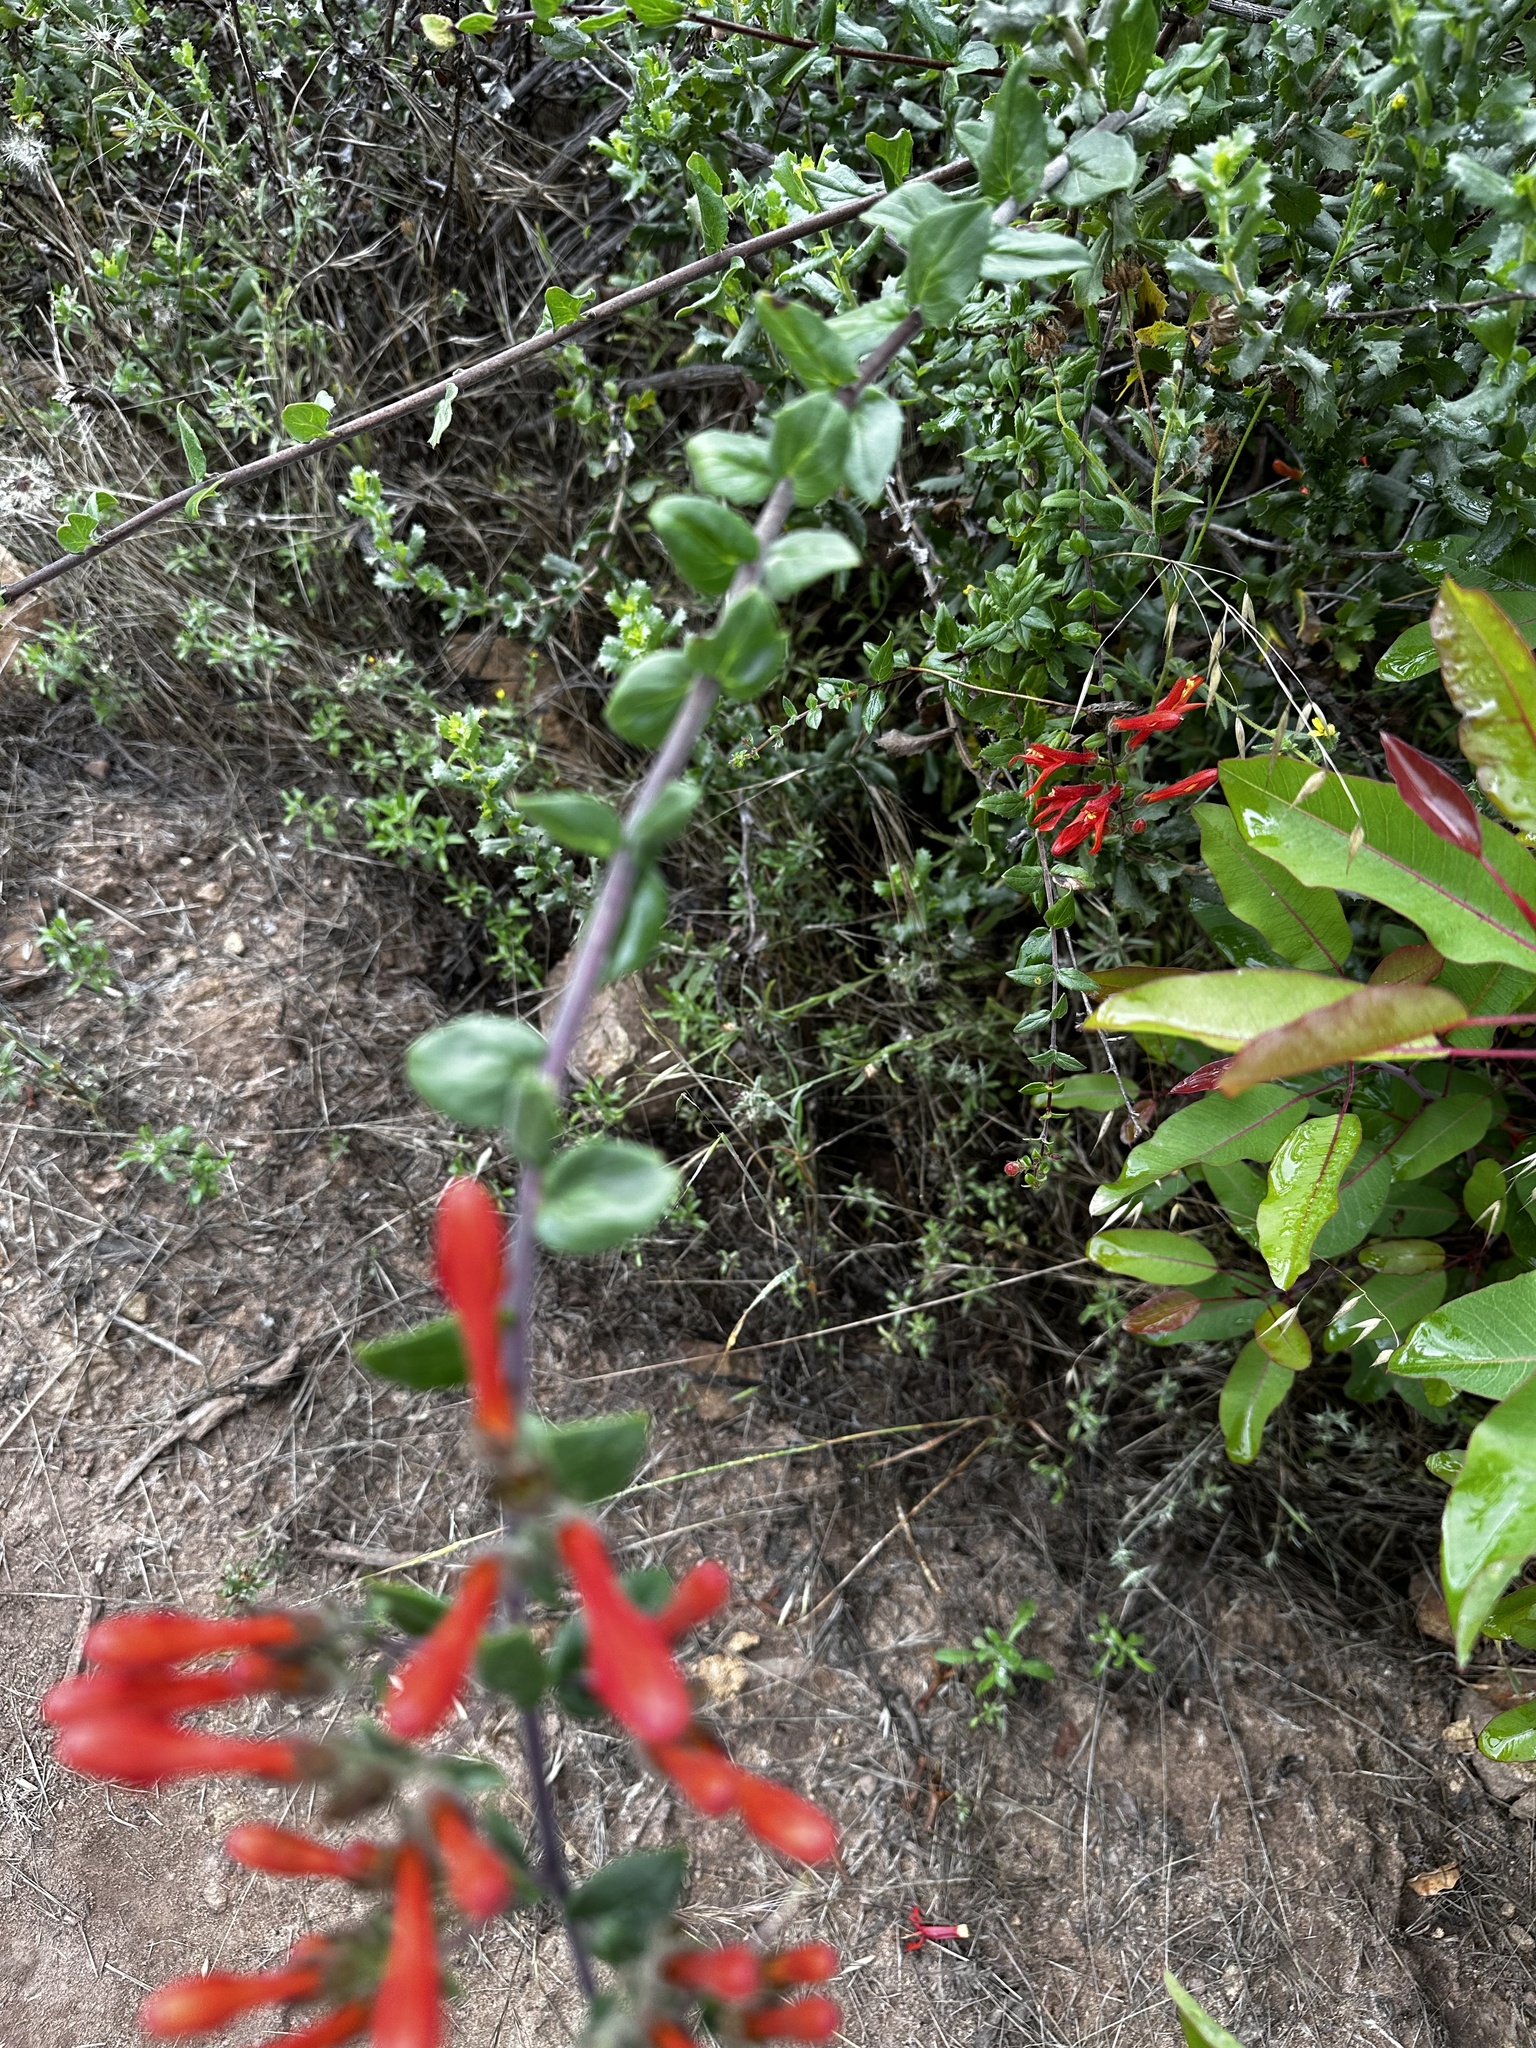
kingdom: Plantae
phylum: Tracheophyta
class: Magnoliopsida
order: Lamiales
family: Plantaginaceae
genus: Keckiella
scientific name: Keckiella cordifolia
